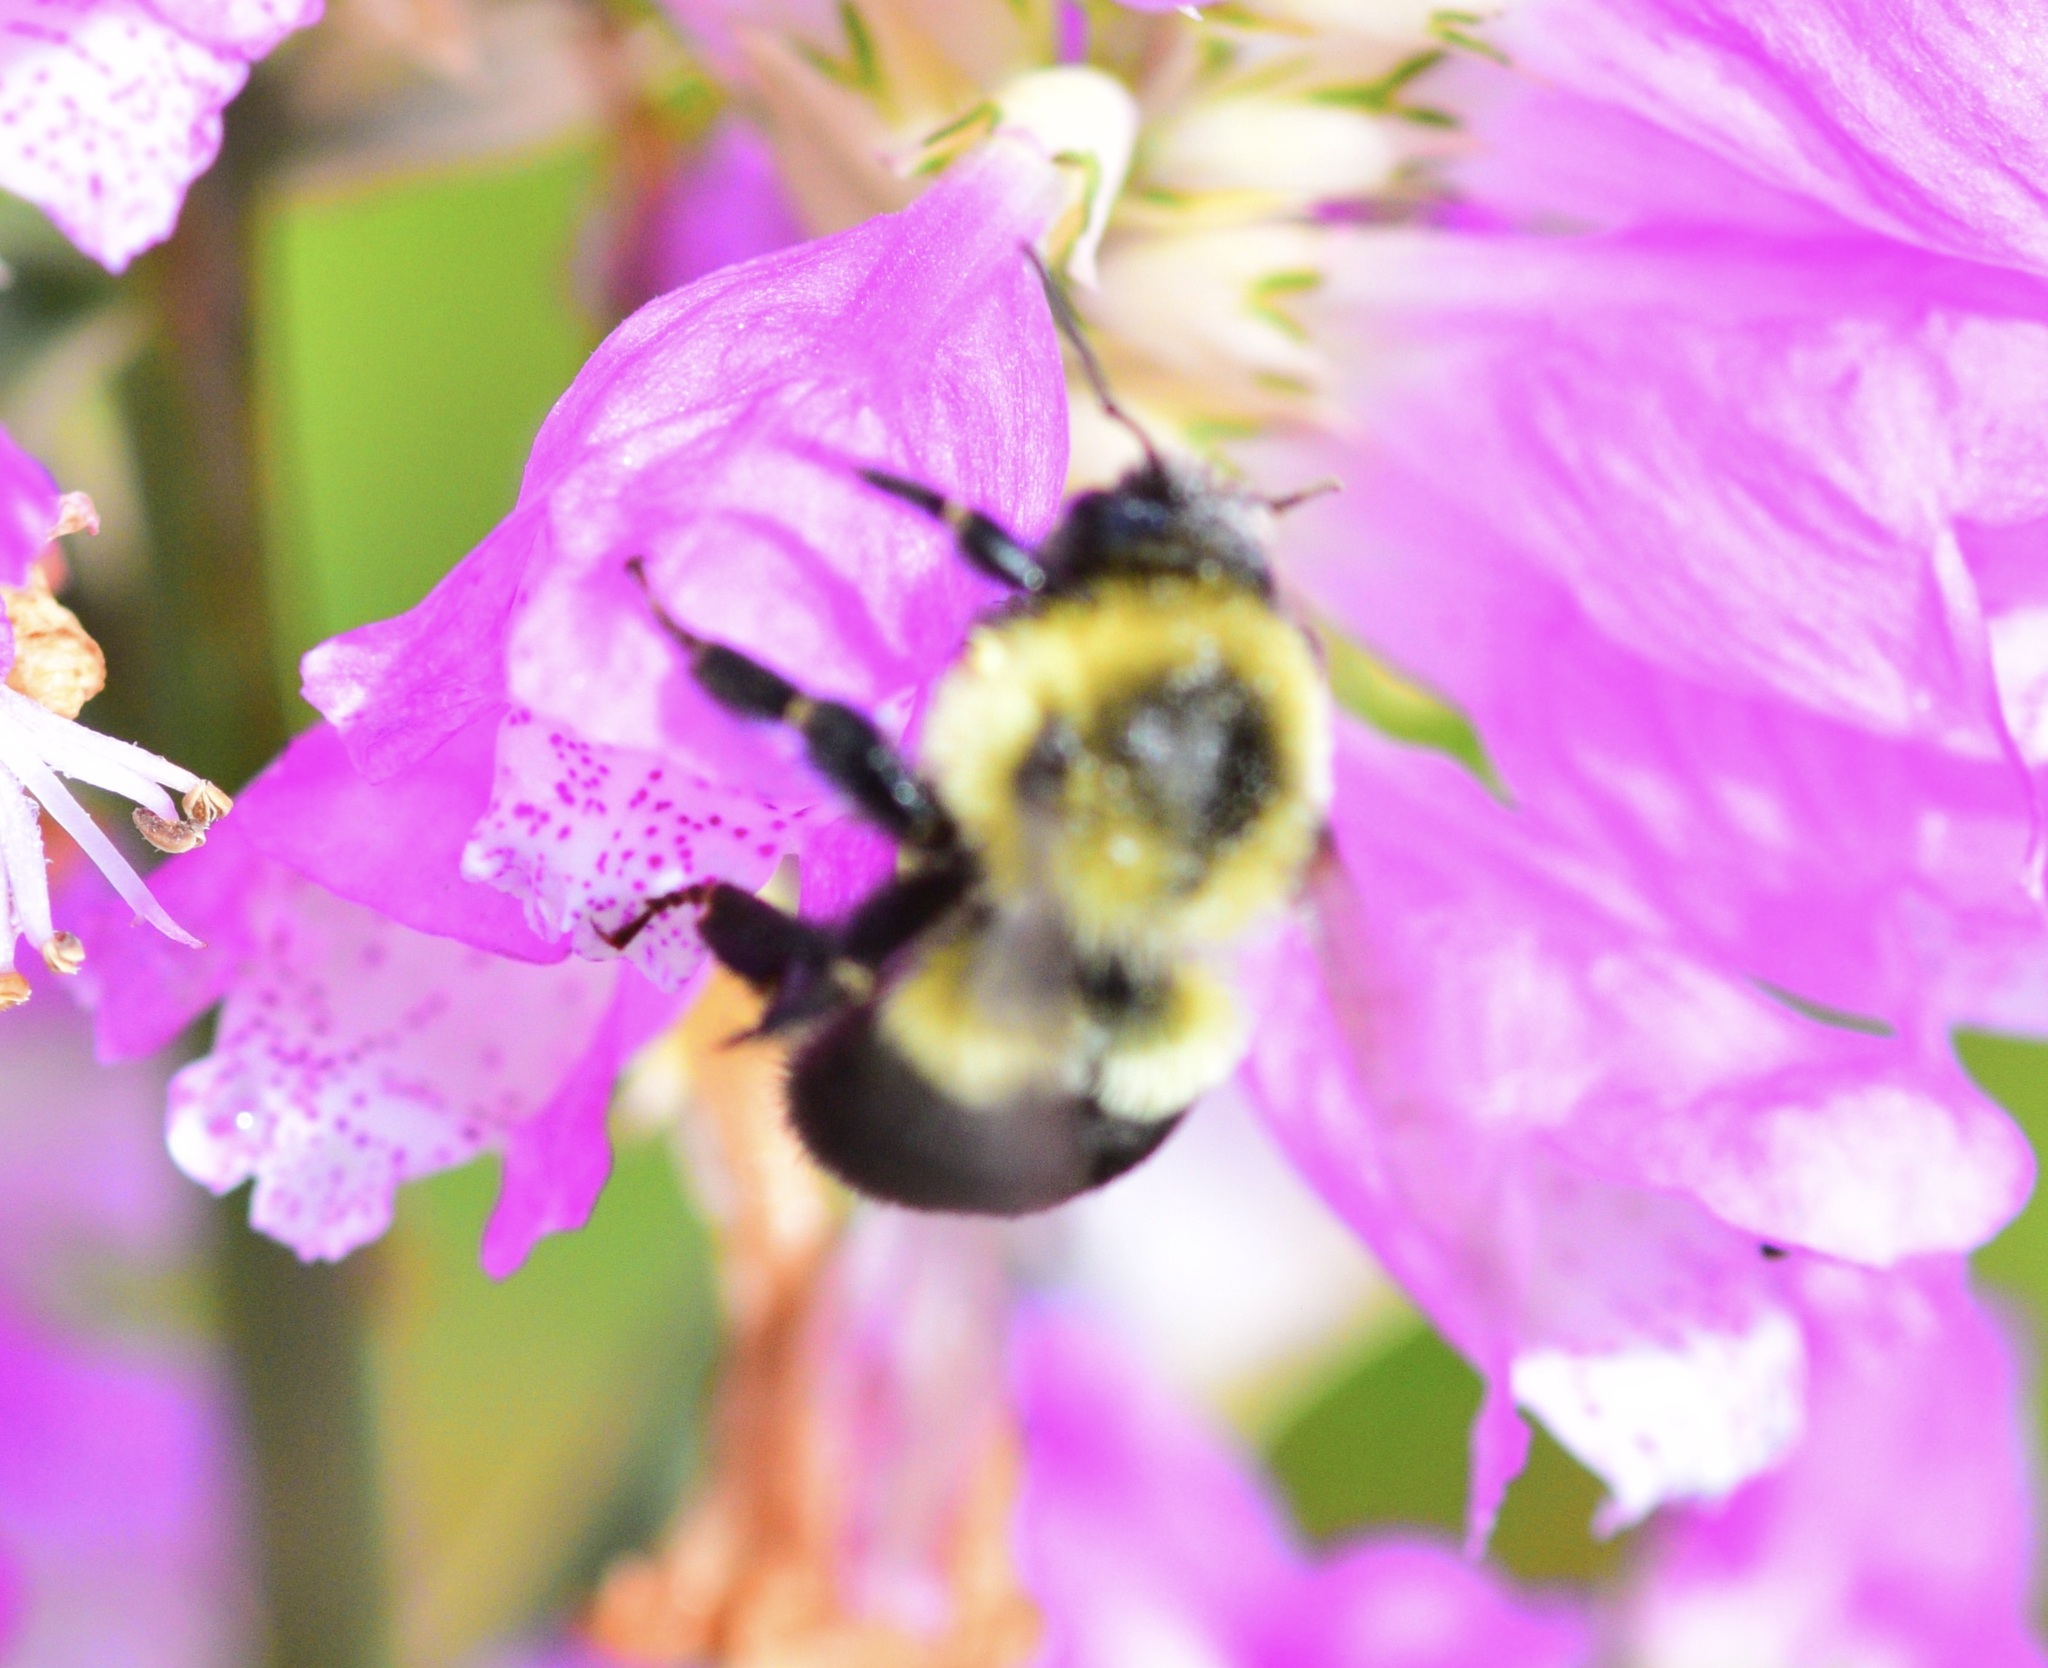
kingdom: Animalia
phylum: Arthropoda
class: Insecta
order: Hymenoptera
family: Apidae
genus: Bombus
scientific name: Bombus impatiens
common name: Common eastern bumble bee
